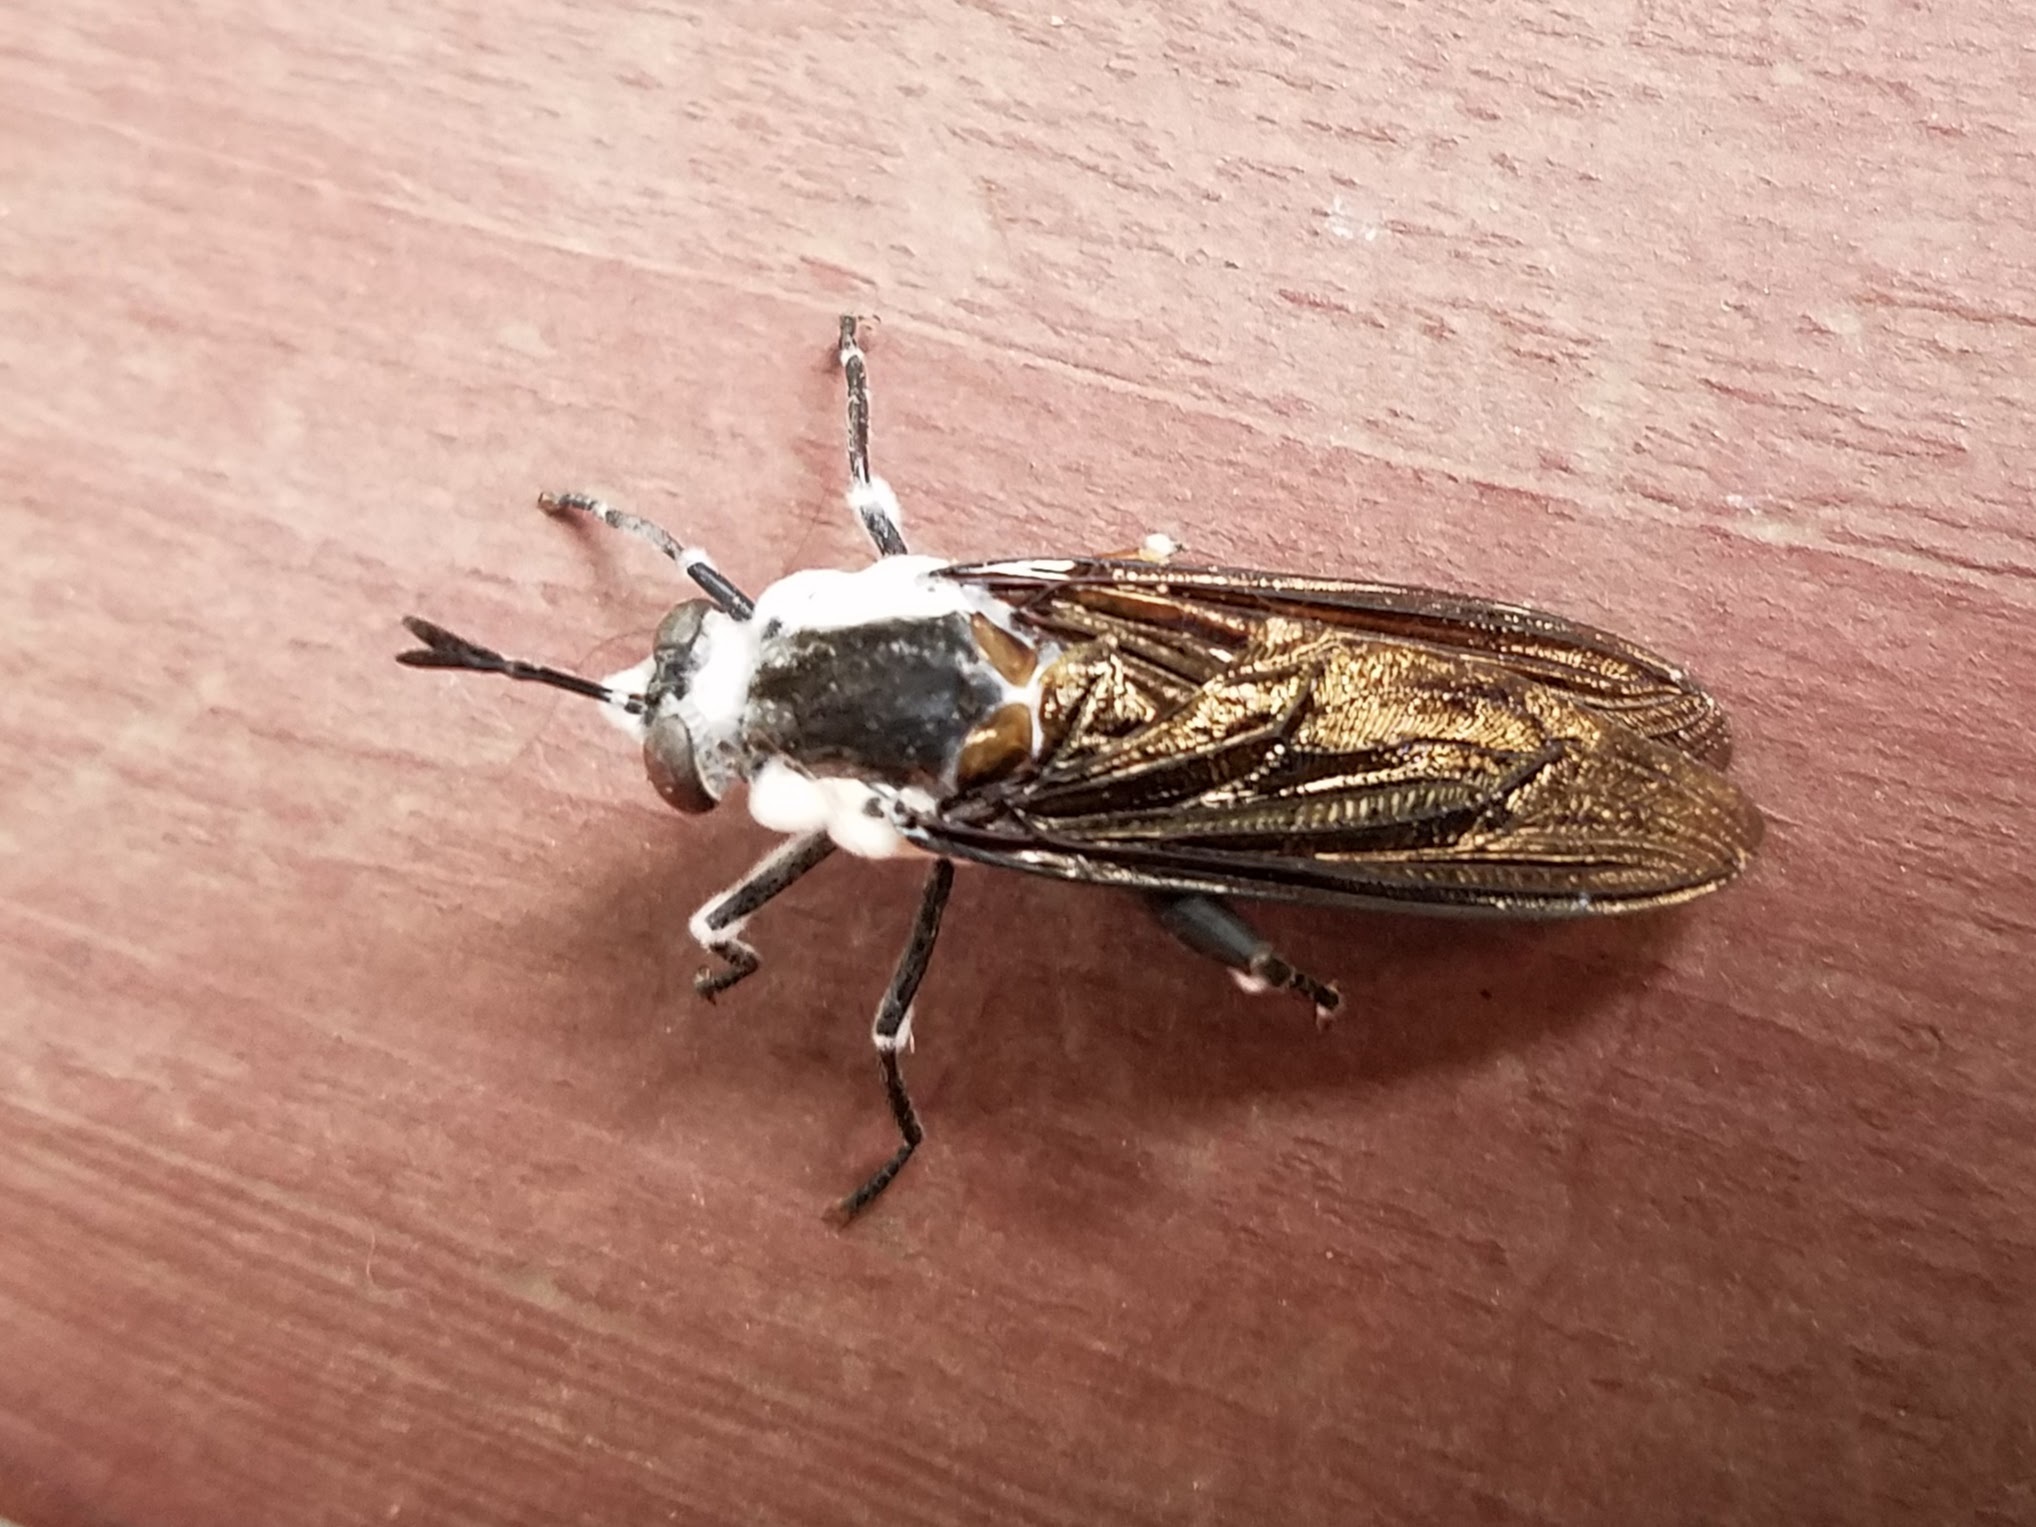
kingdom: Animalia
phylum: Arthropoda
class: Insecta
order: Diptera
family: Mydidae
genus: Mydas
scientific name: Mydas
